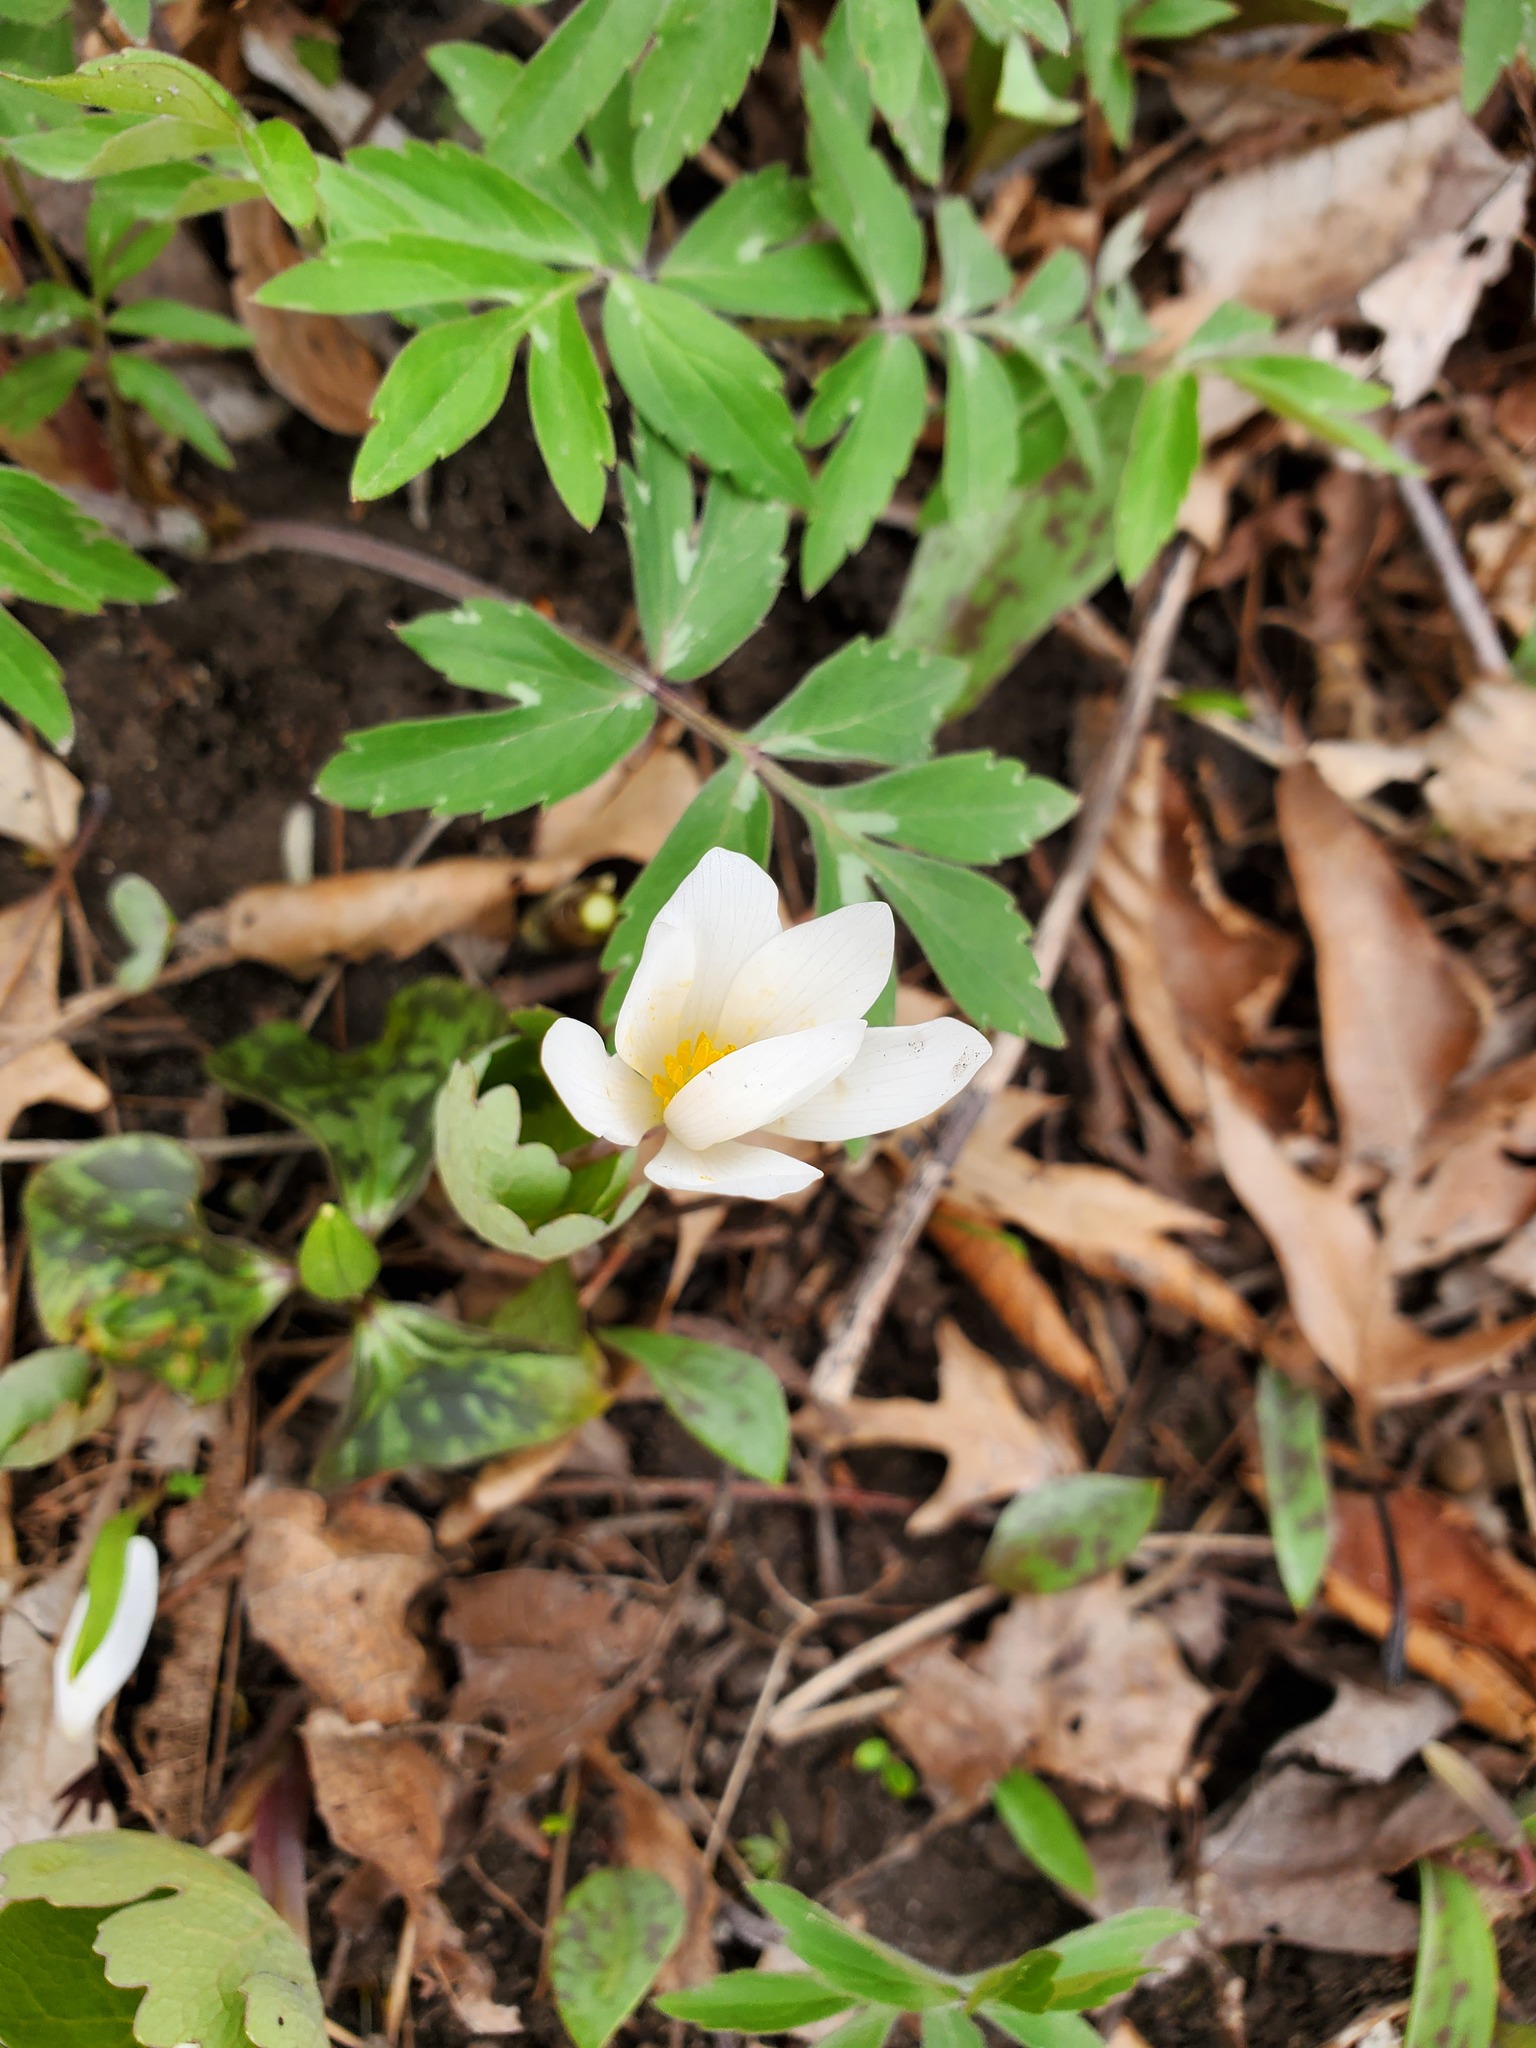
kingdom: Plantae
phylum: Tracheophyta
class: Magnoliopsida
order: Ranunculales
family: Papaveraceae
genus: Sanguinaria
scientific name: Sanguinaria canadensis
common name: Bloodroot
